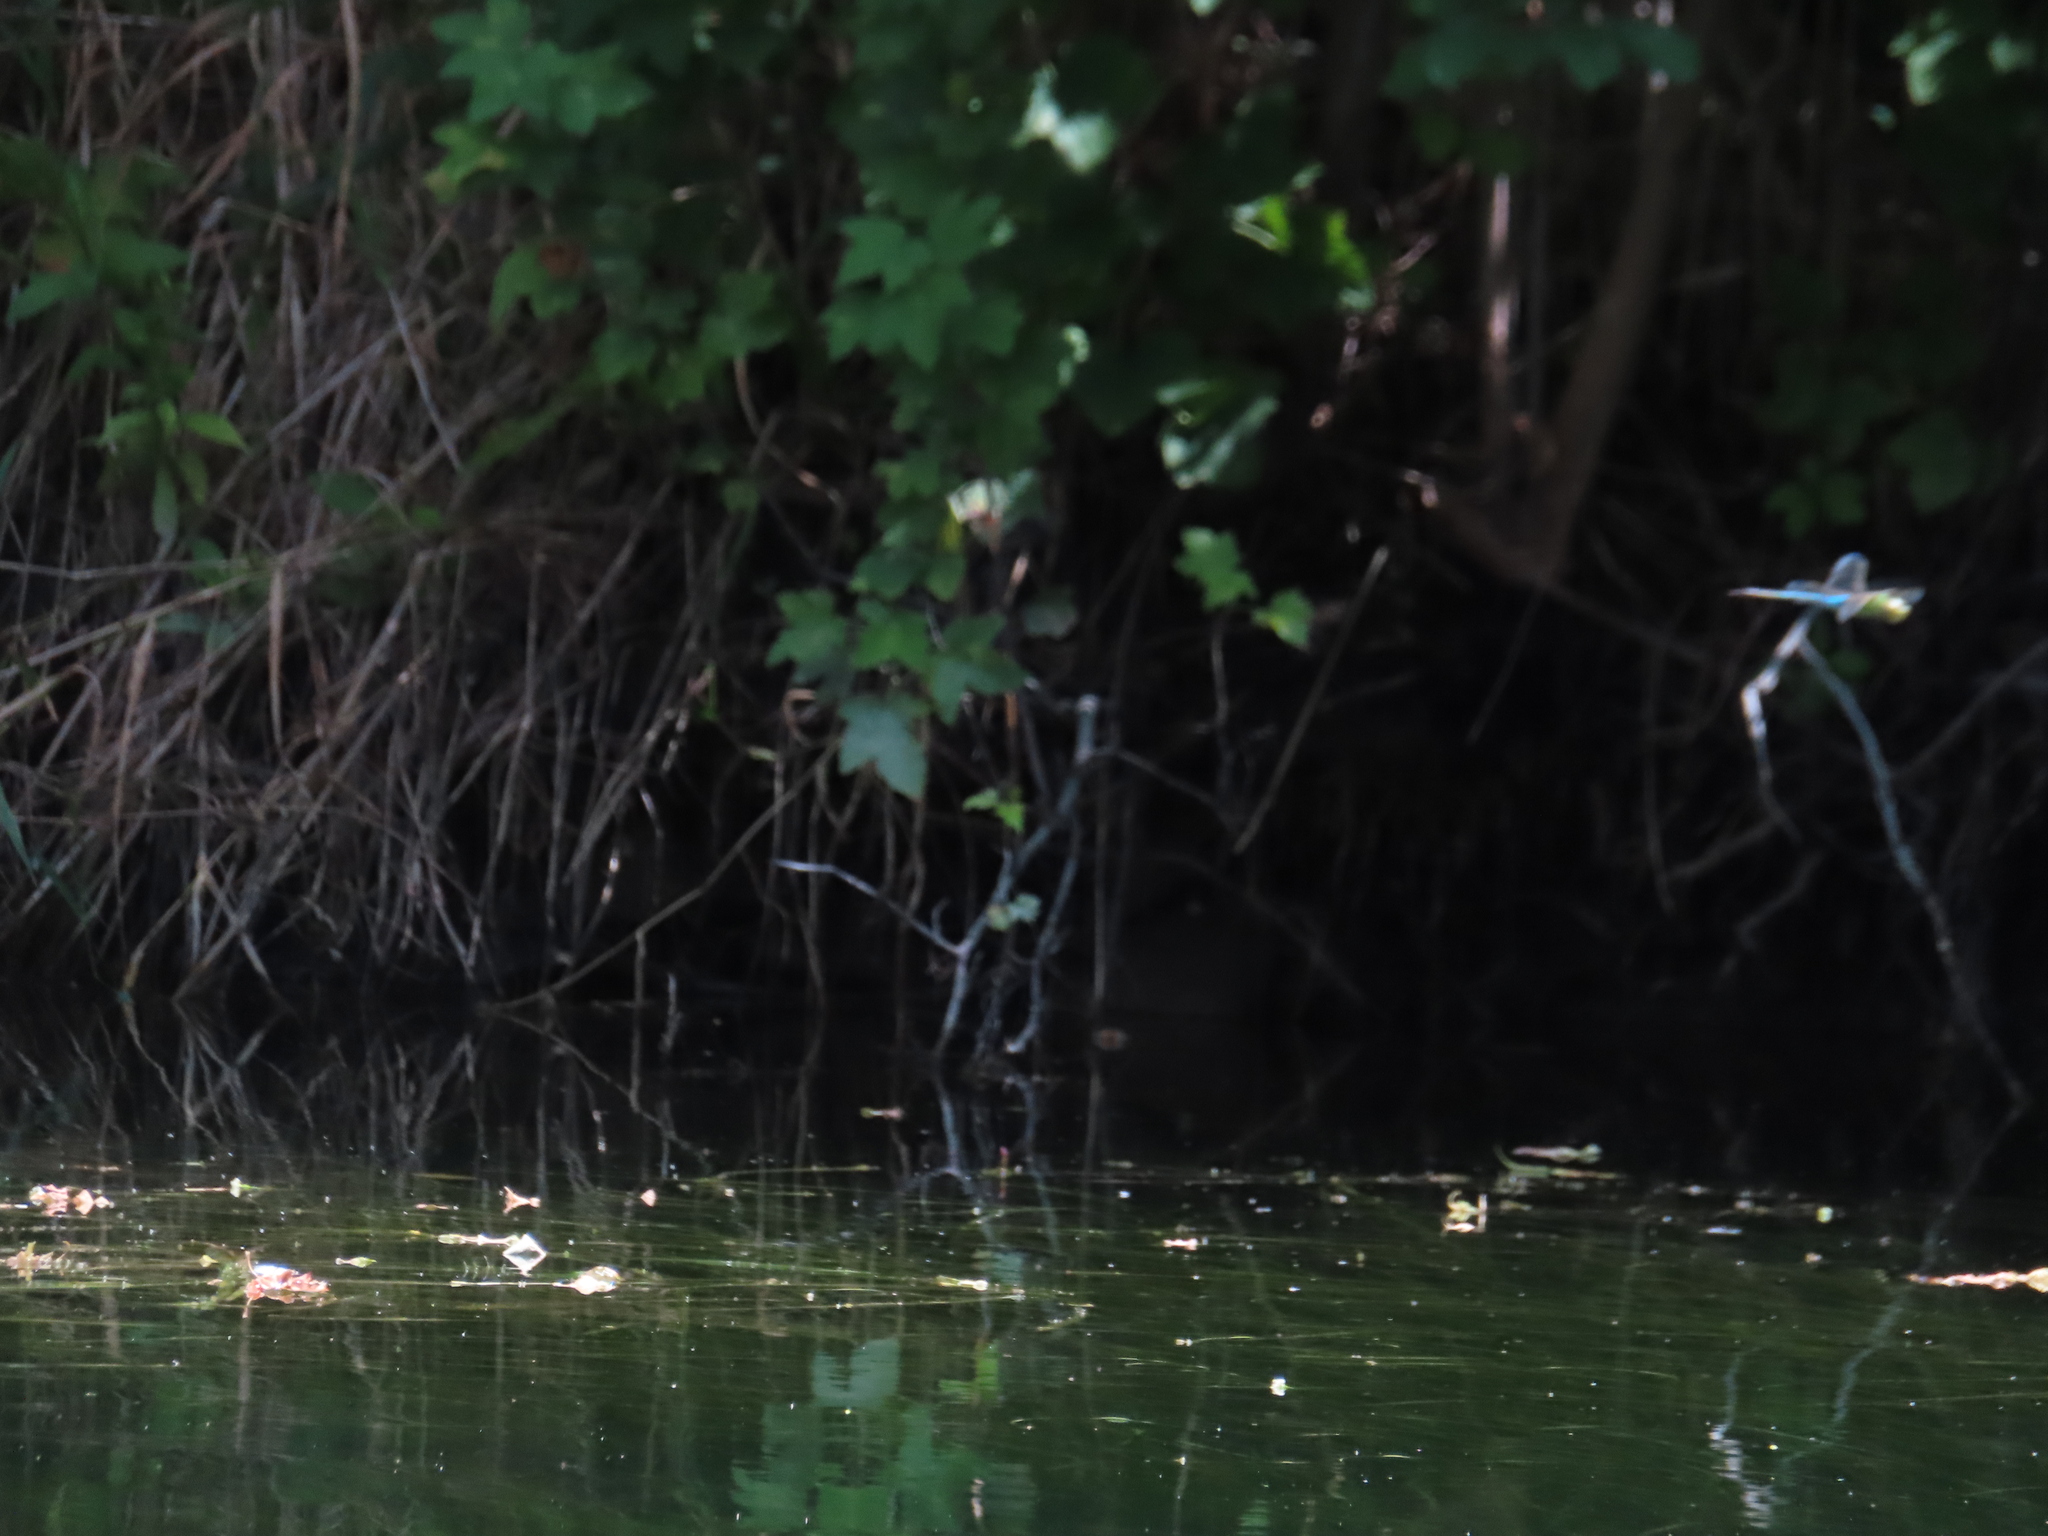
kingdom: Animalia
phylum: Arthropoda
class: Insecta
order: Odonata
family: Aeshnidae
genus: Anax
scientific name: Anax junius
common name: Common green darner
